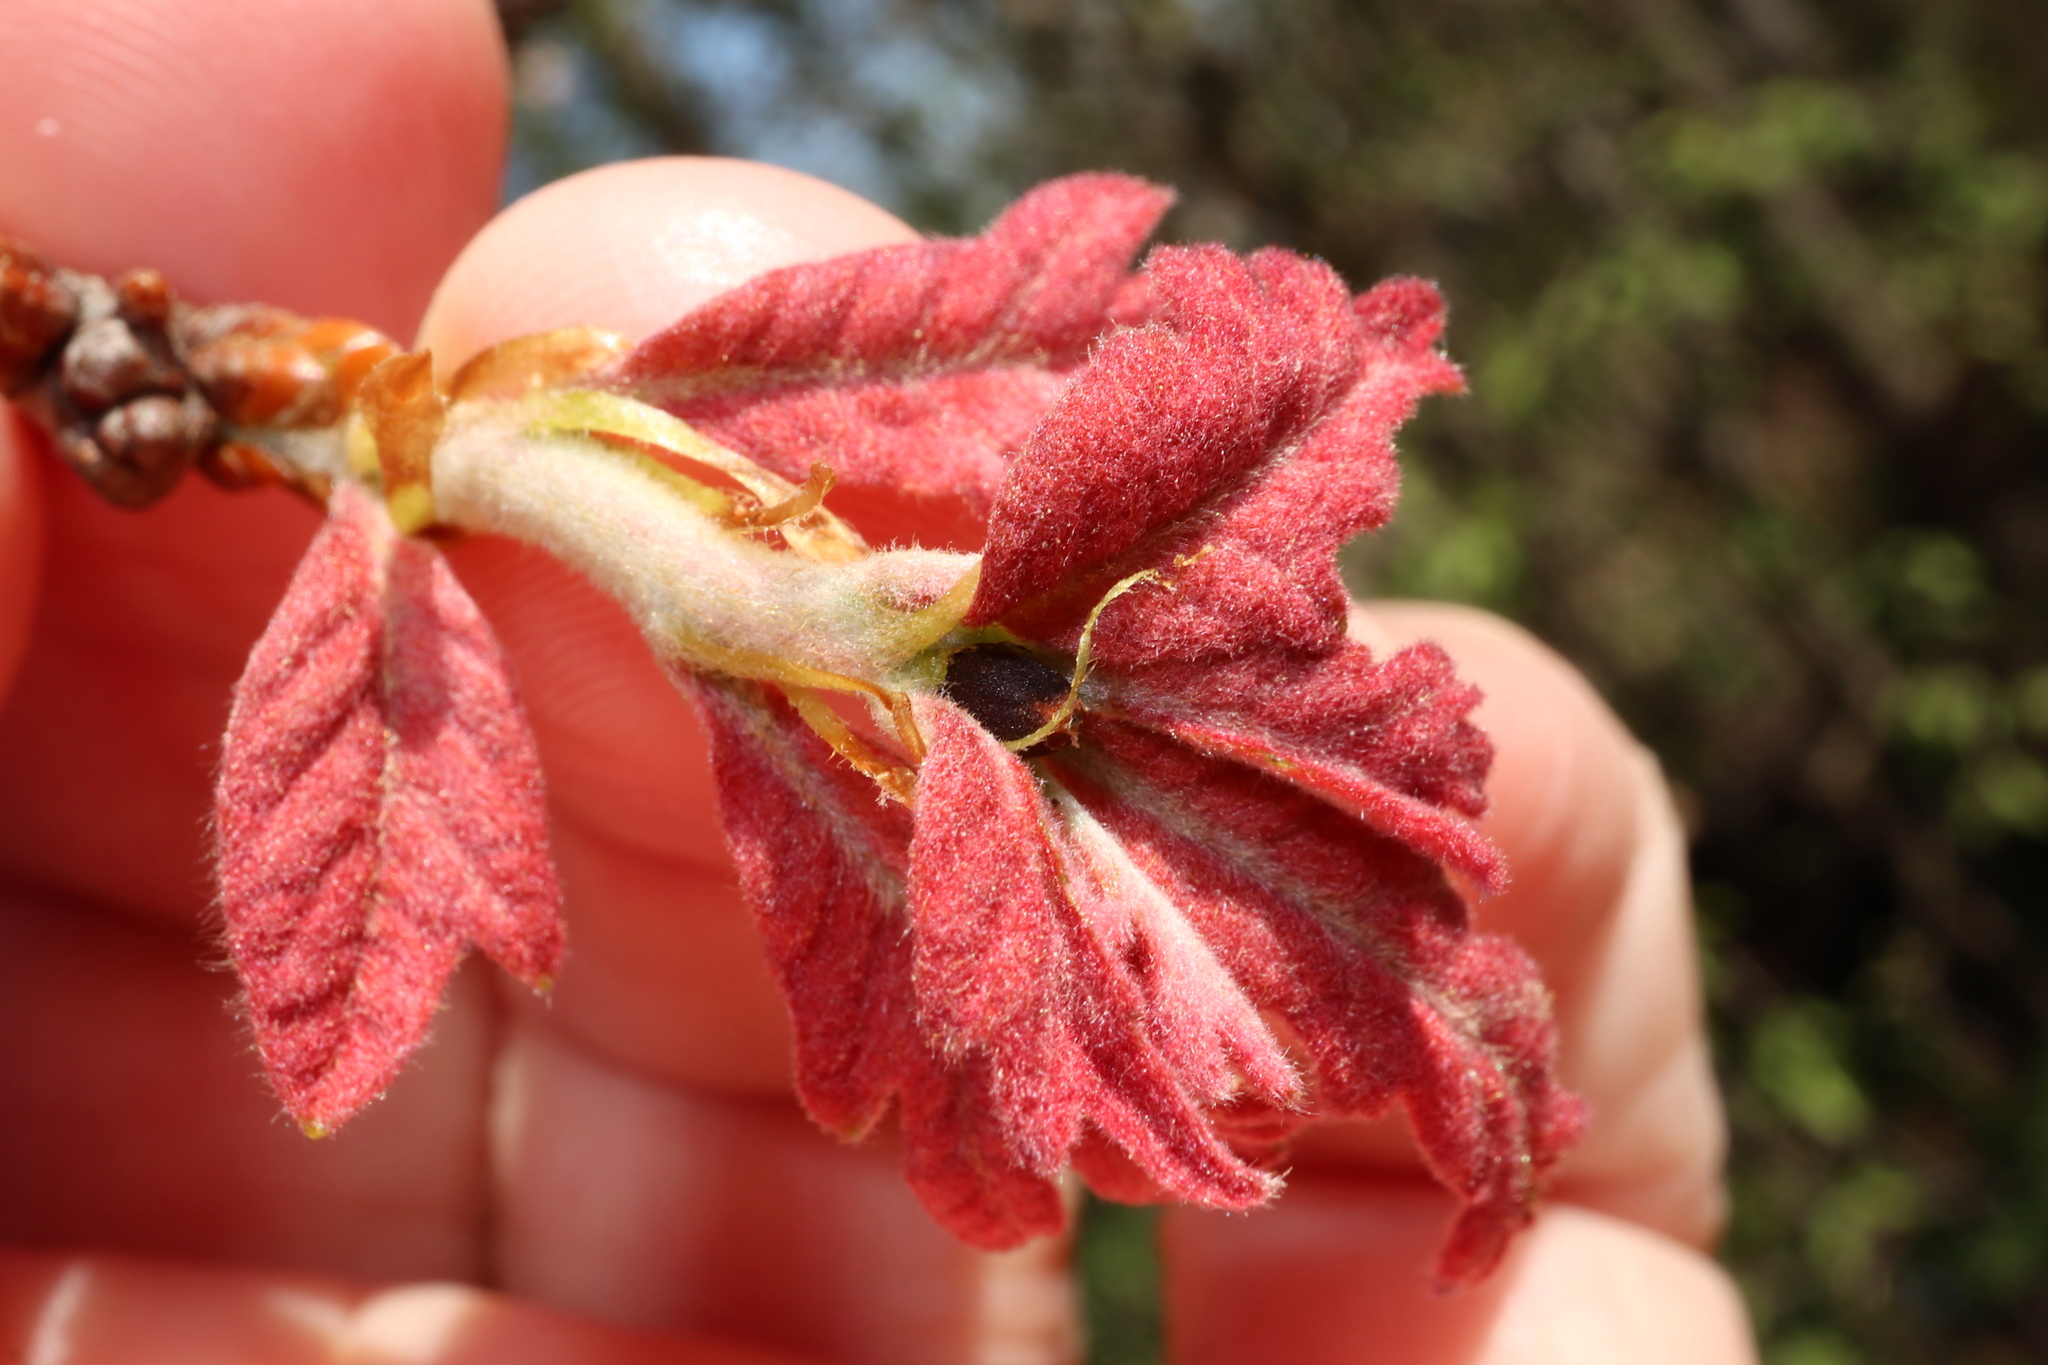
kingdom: Animalia
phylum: Arthropoda
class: Insecta
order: Hymenoptera
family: Cynipidae
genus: Philonix
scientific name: Philonix fulvicollis
